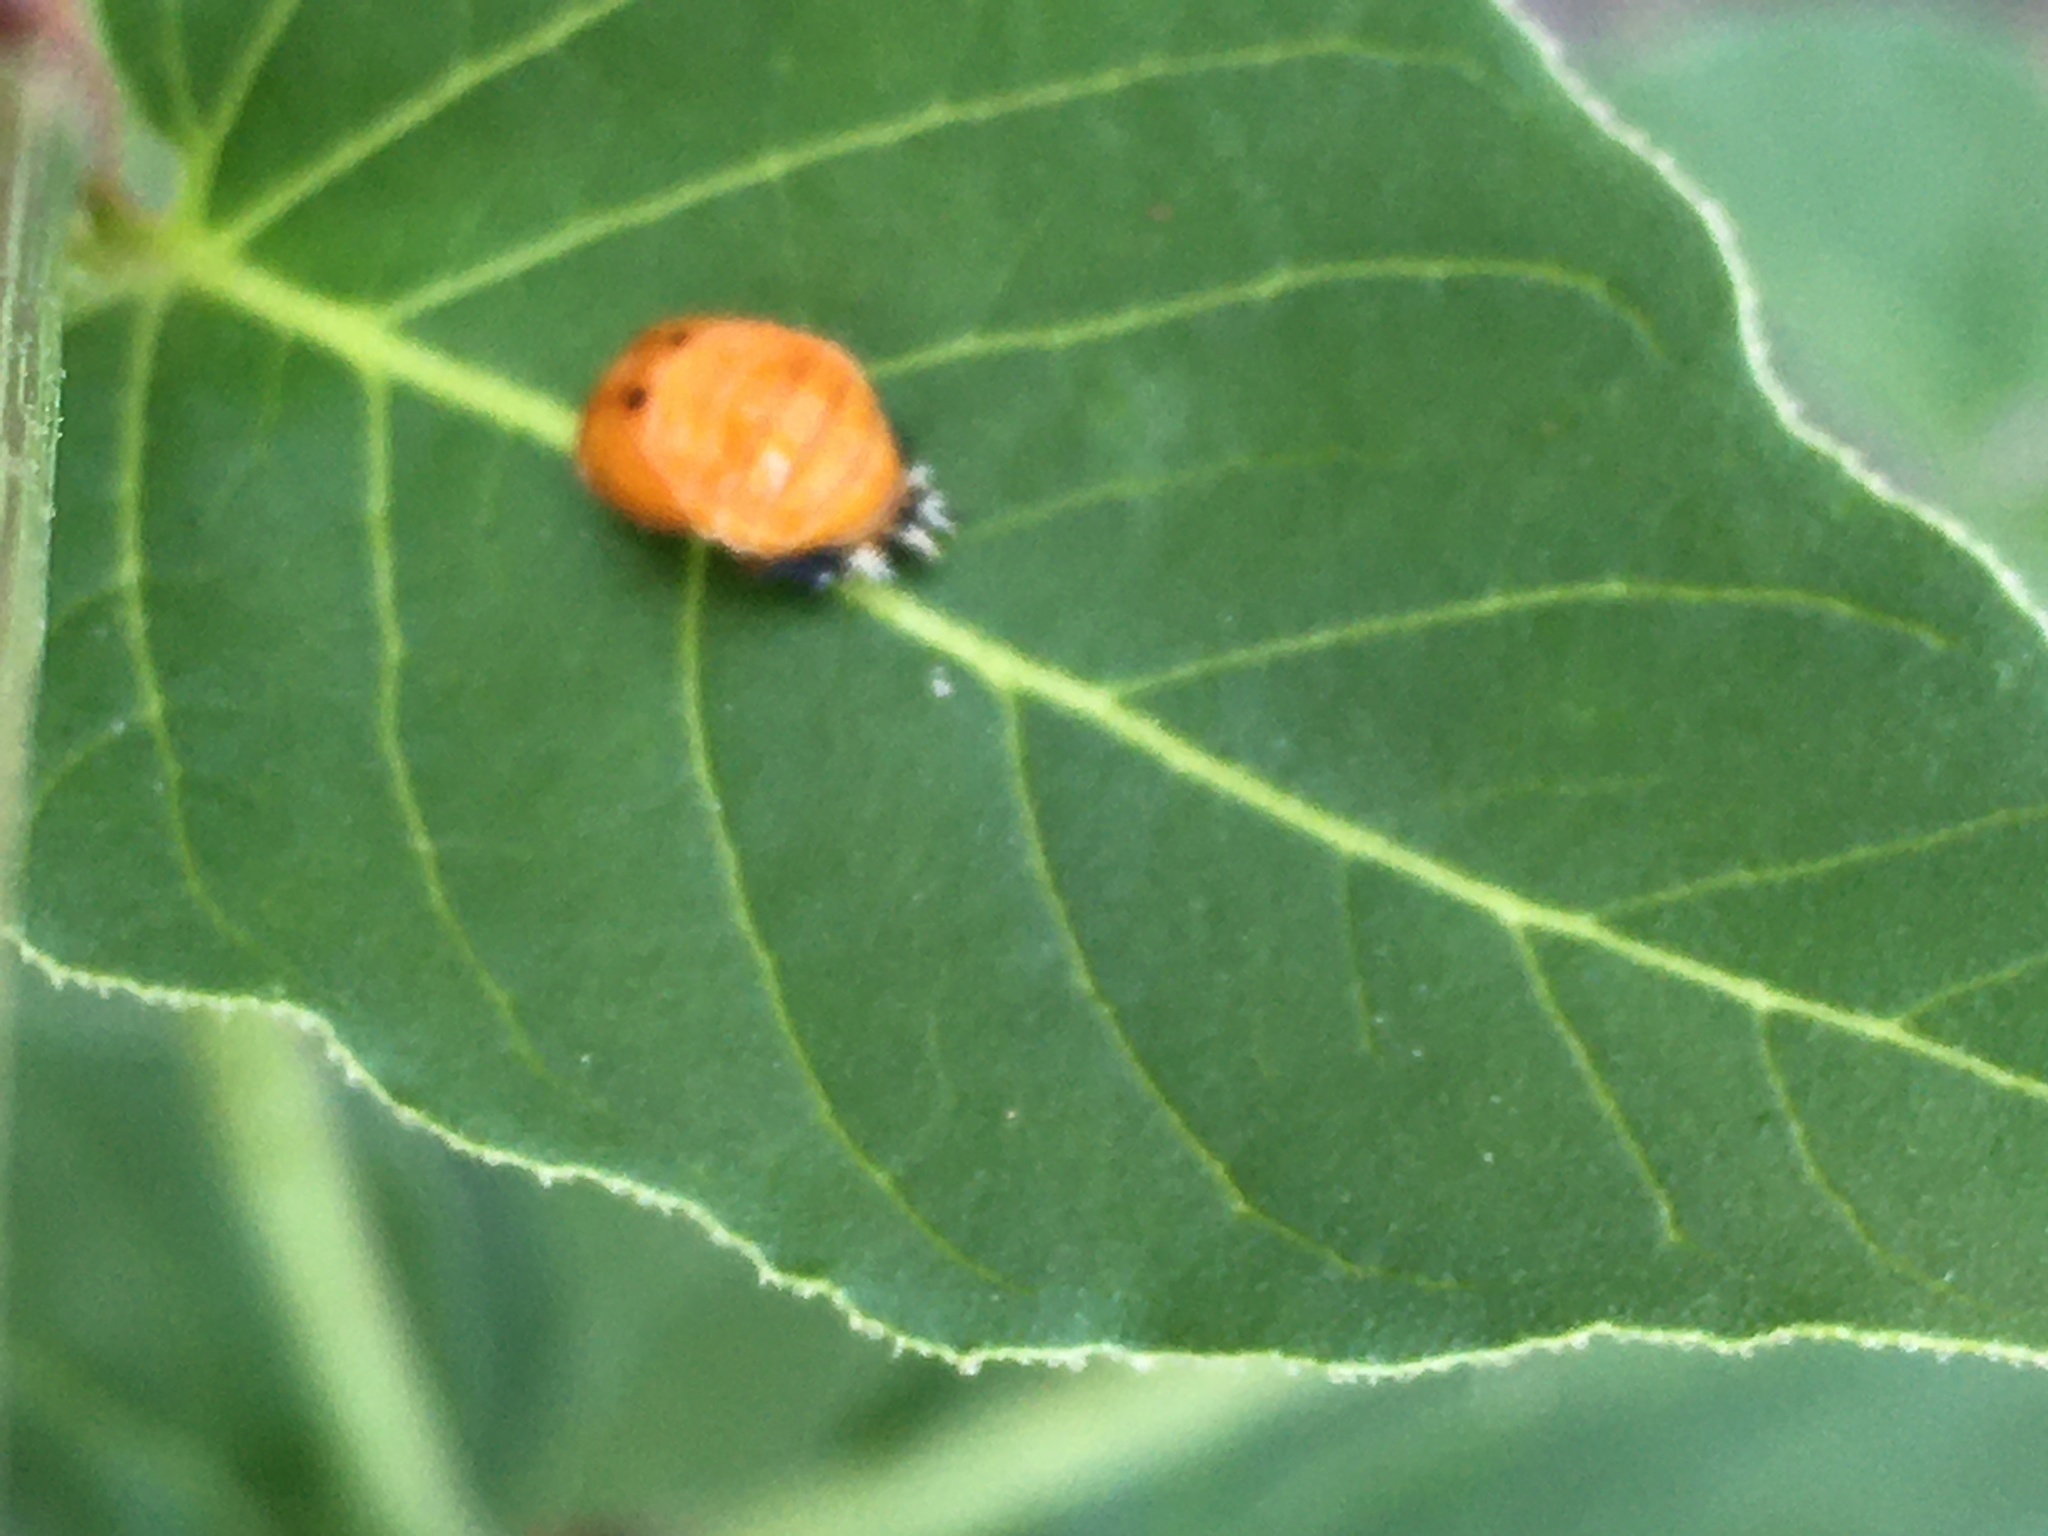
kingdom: Animalia
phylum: Arthropoda
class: Insecta
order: Coleoptera
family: Coccinellidae
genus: Harmonia
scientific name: Harmonia axyridis
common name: Harlequin ladybird
